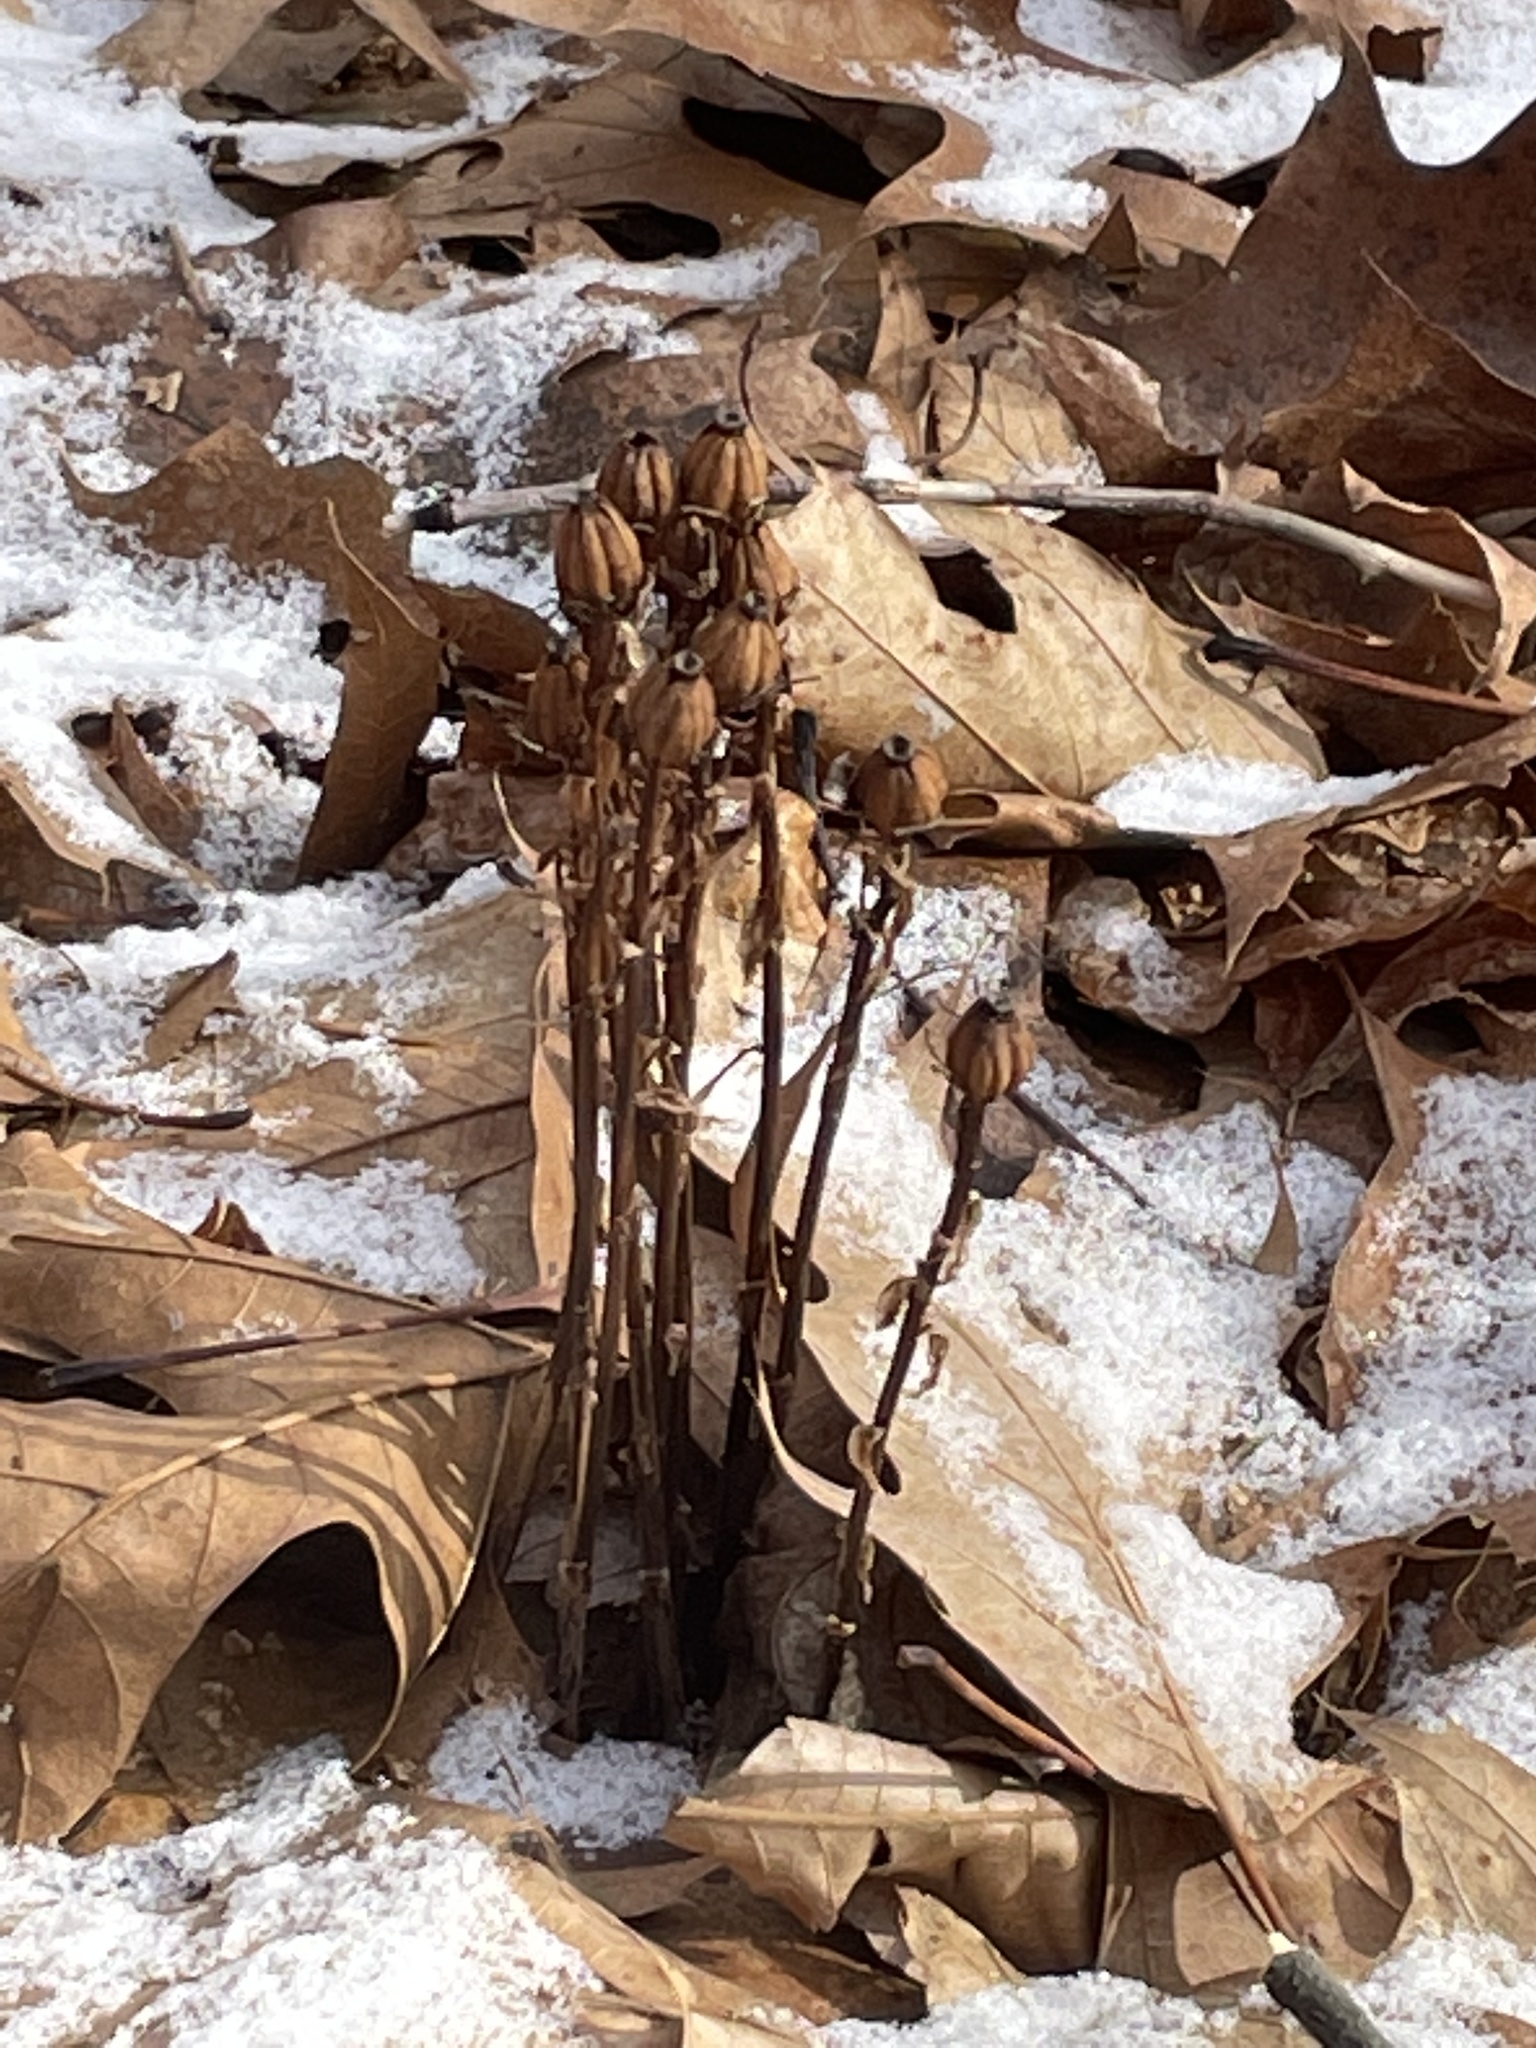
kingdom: Plantae
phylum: Tracheophyta
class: Magnoliopsida
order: Ericales
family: Ericaceae
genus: Monotropa
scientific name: Monotropa uniflora
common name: Convulsion root
